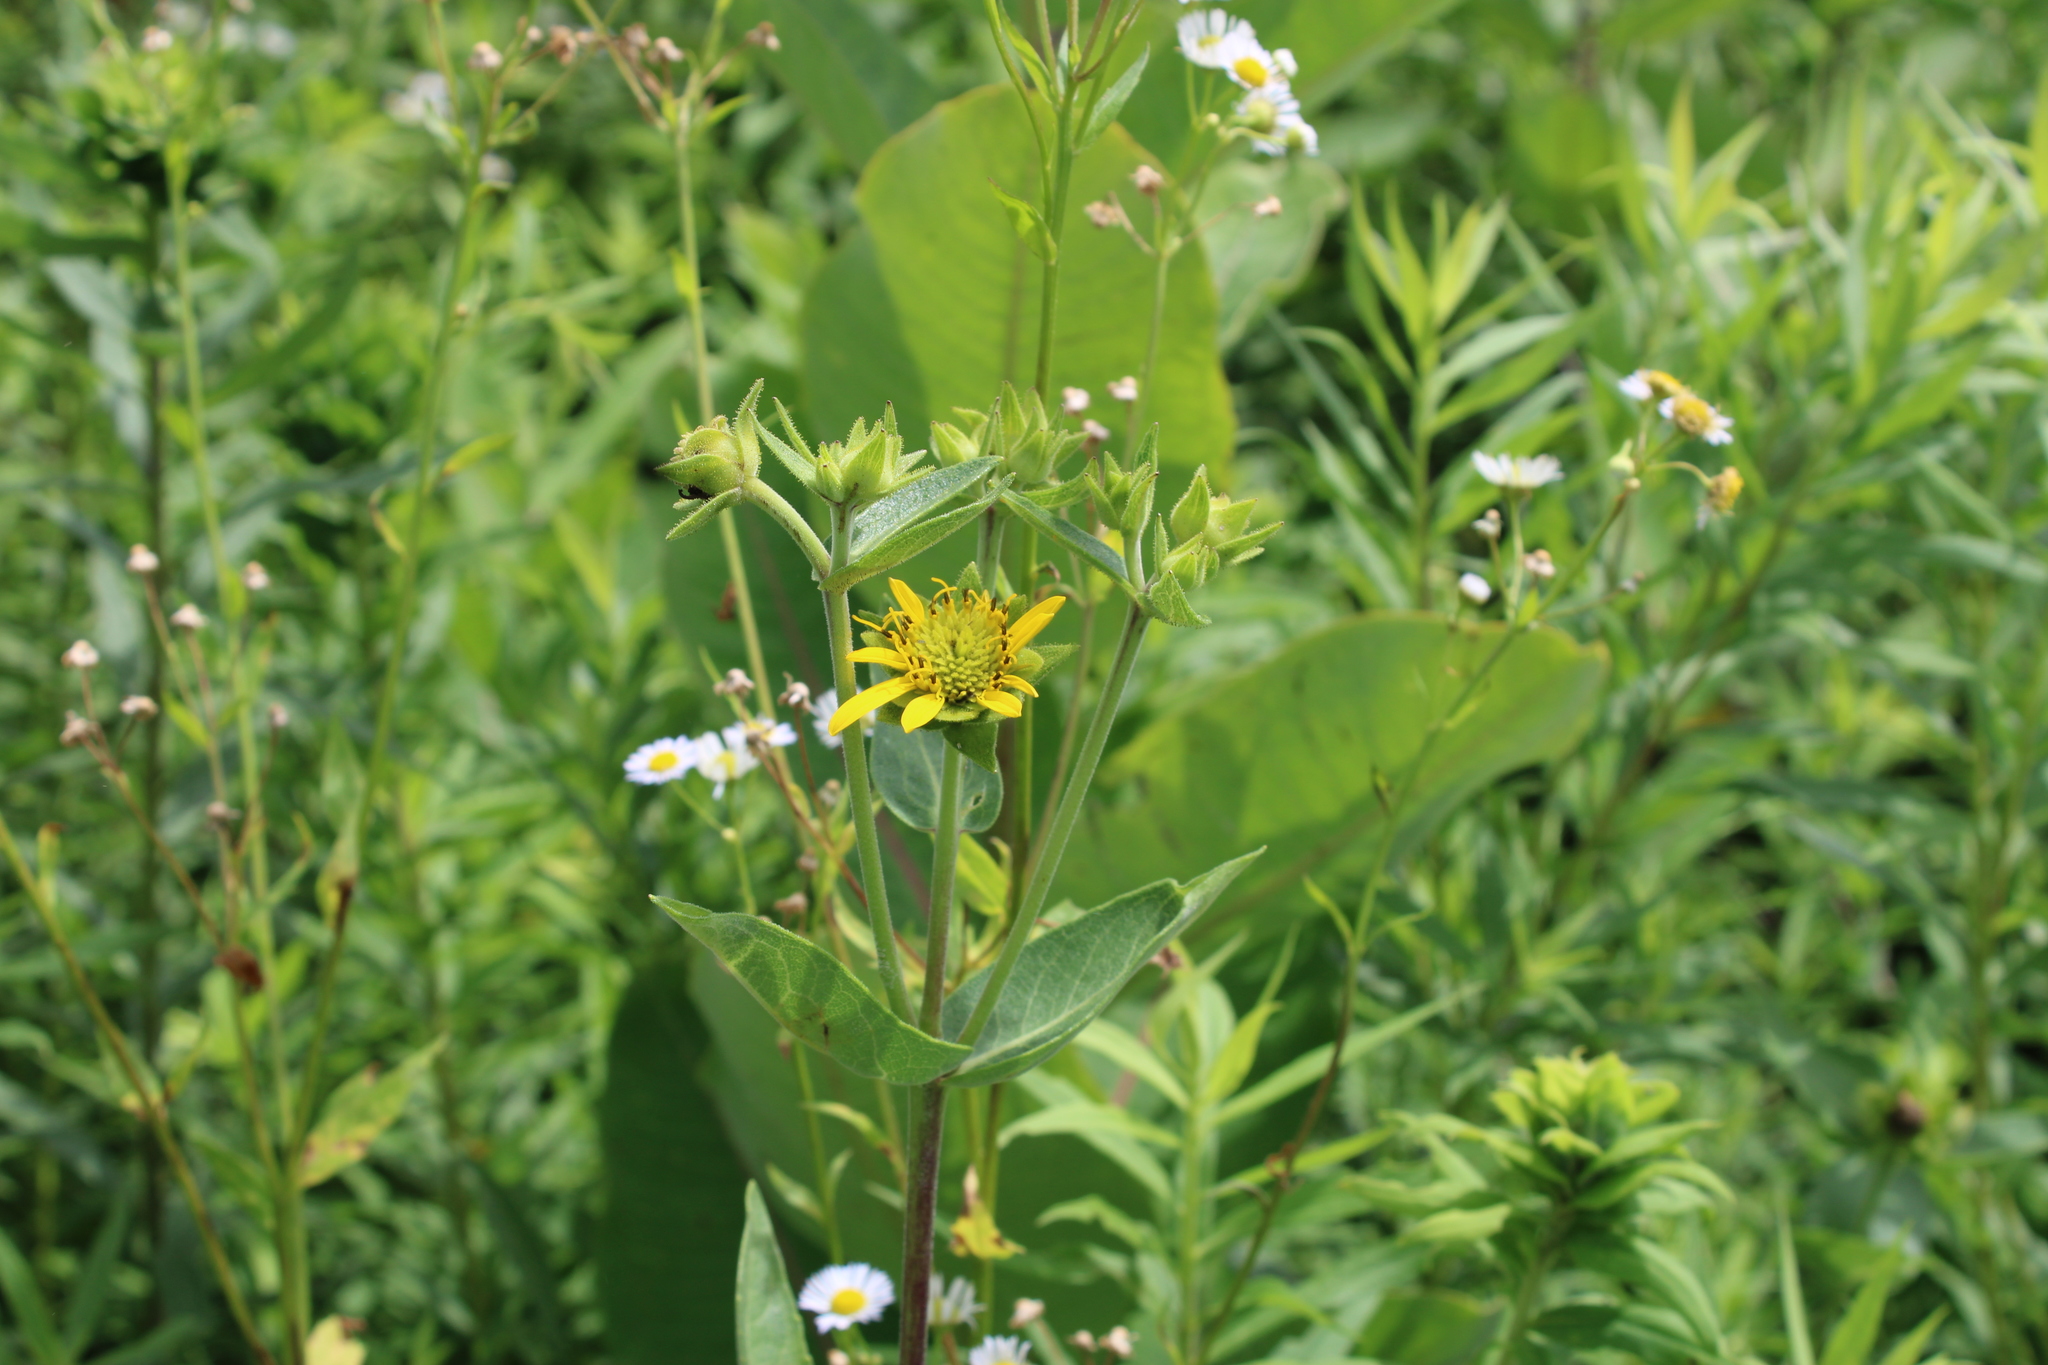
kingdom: Plantae
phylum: Tracheophyta
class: Magnoliopsida
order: Asterales
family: Asteraceae
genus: Silphium
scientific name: Silphium integrifolium
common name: Whole-leaf rosinweed
